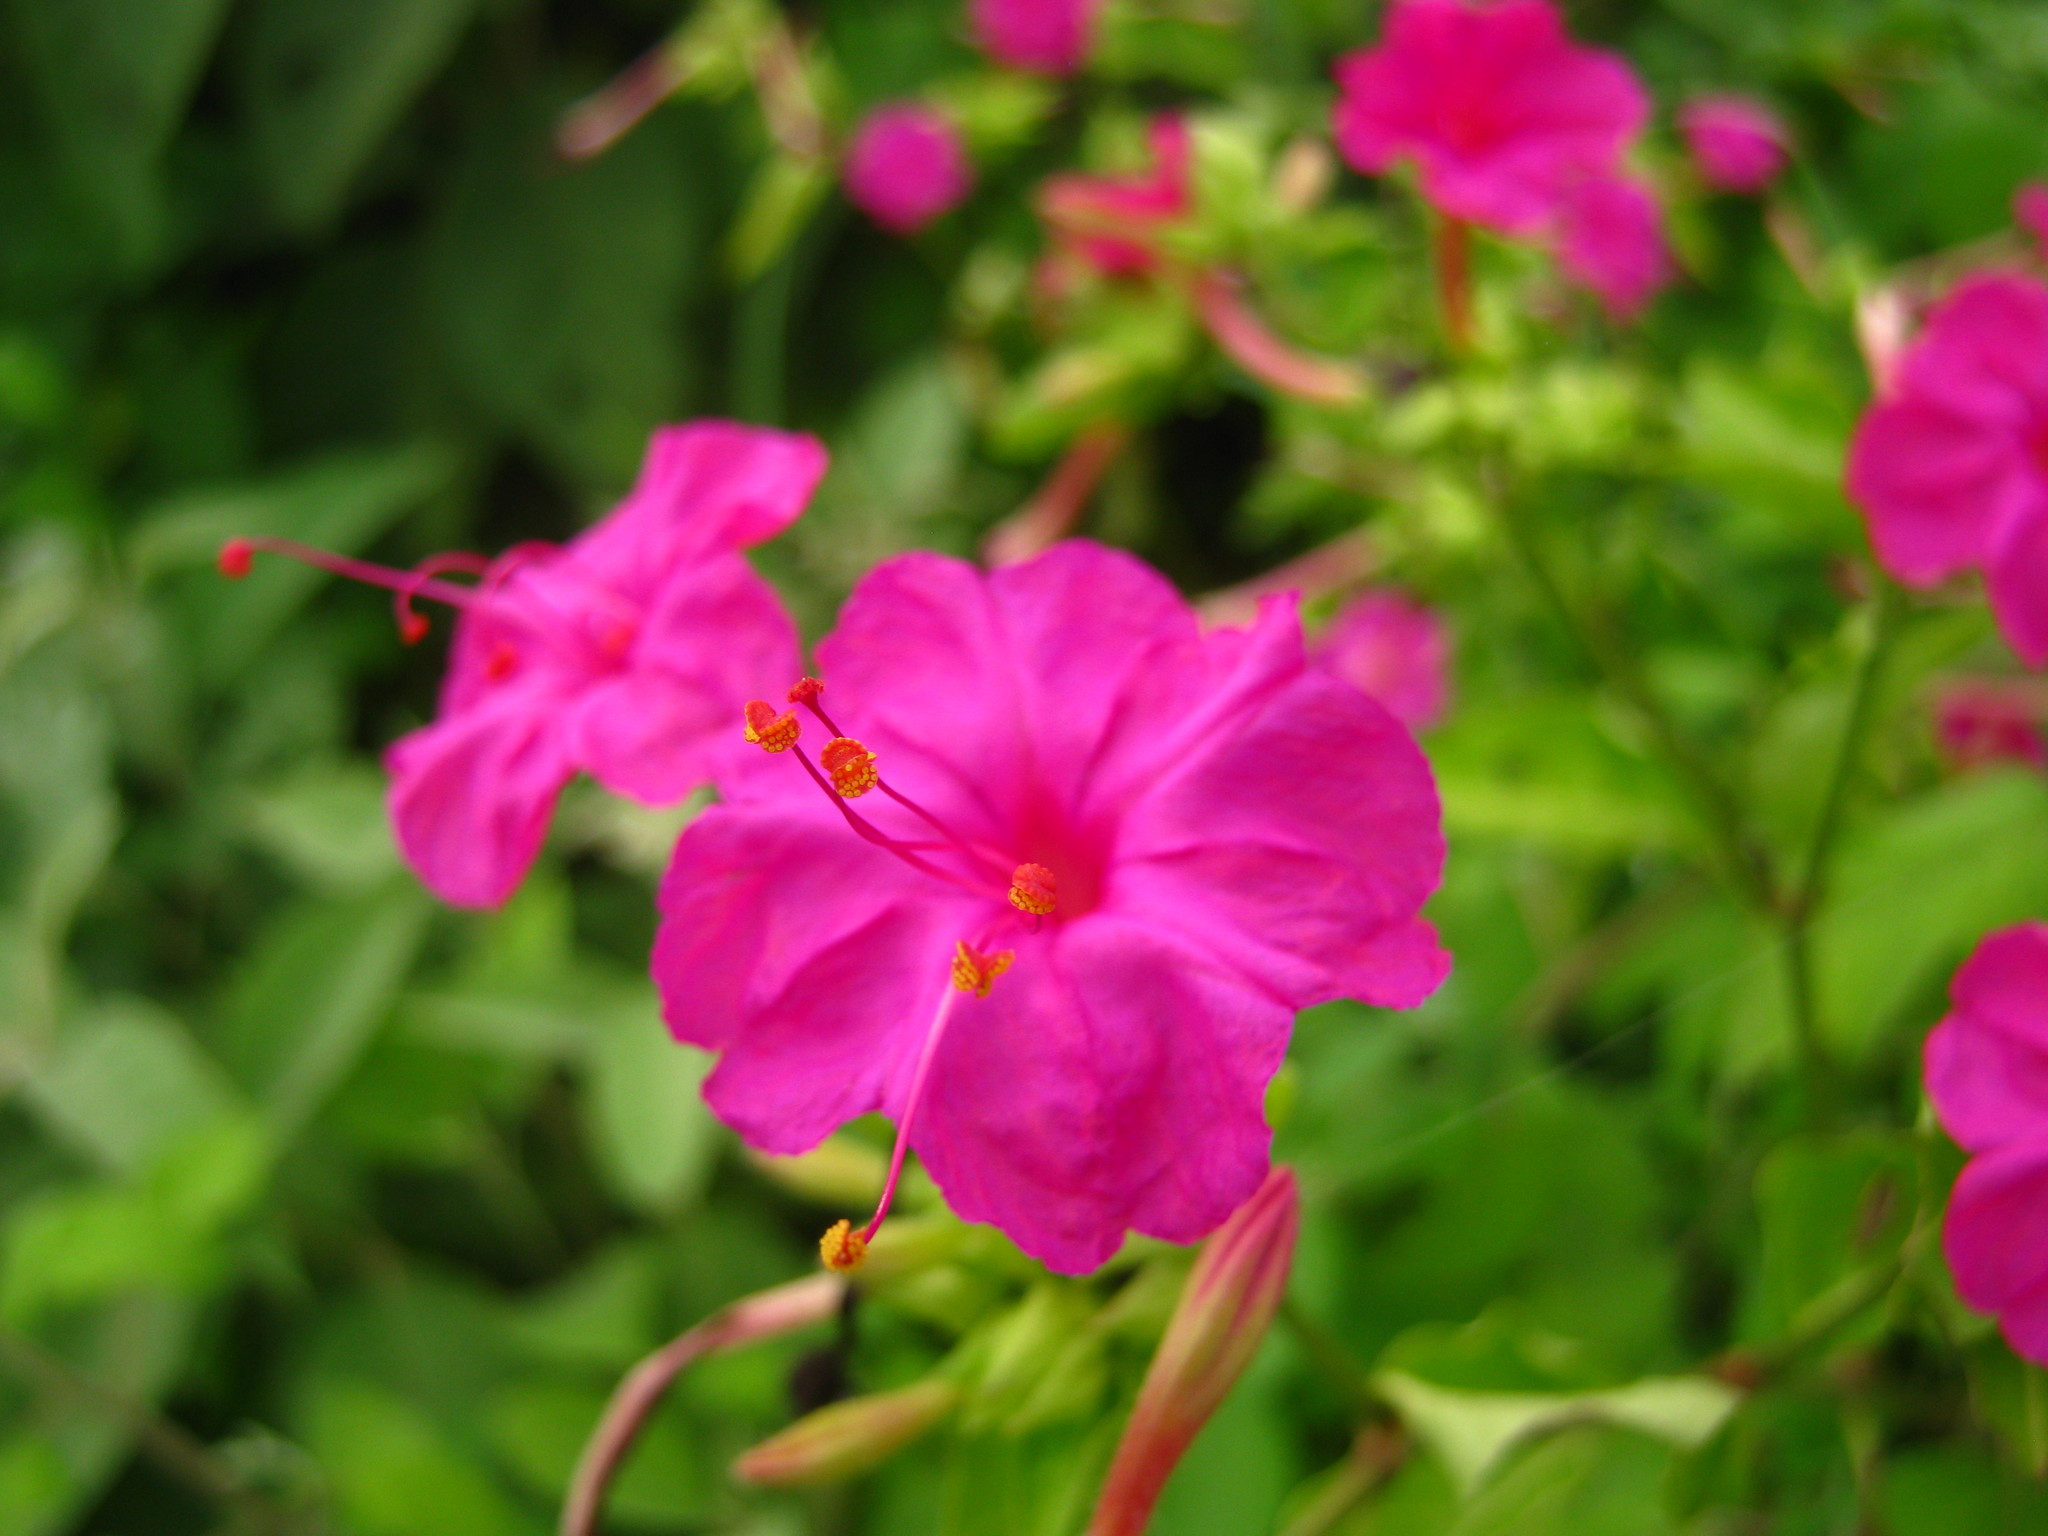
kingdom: Plantae
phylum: Tracheophyta
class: Magnoliopsida
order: Caryophyllales
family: Nyctaginaceae
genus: Mirabilis
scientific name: Mirabilis jalapa
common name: Marvel-of-peru
